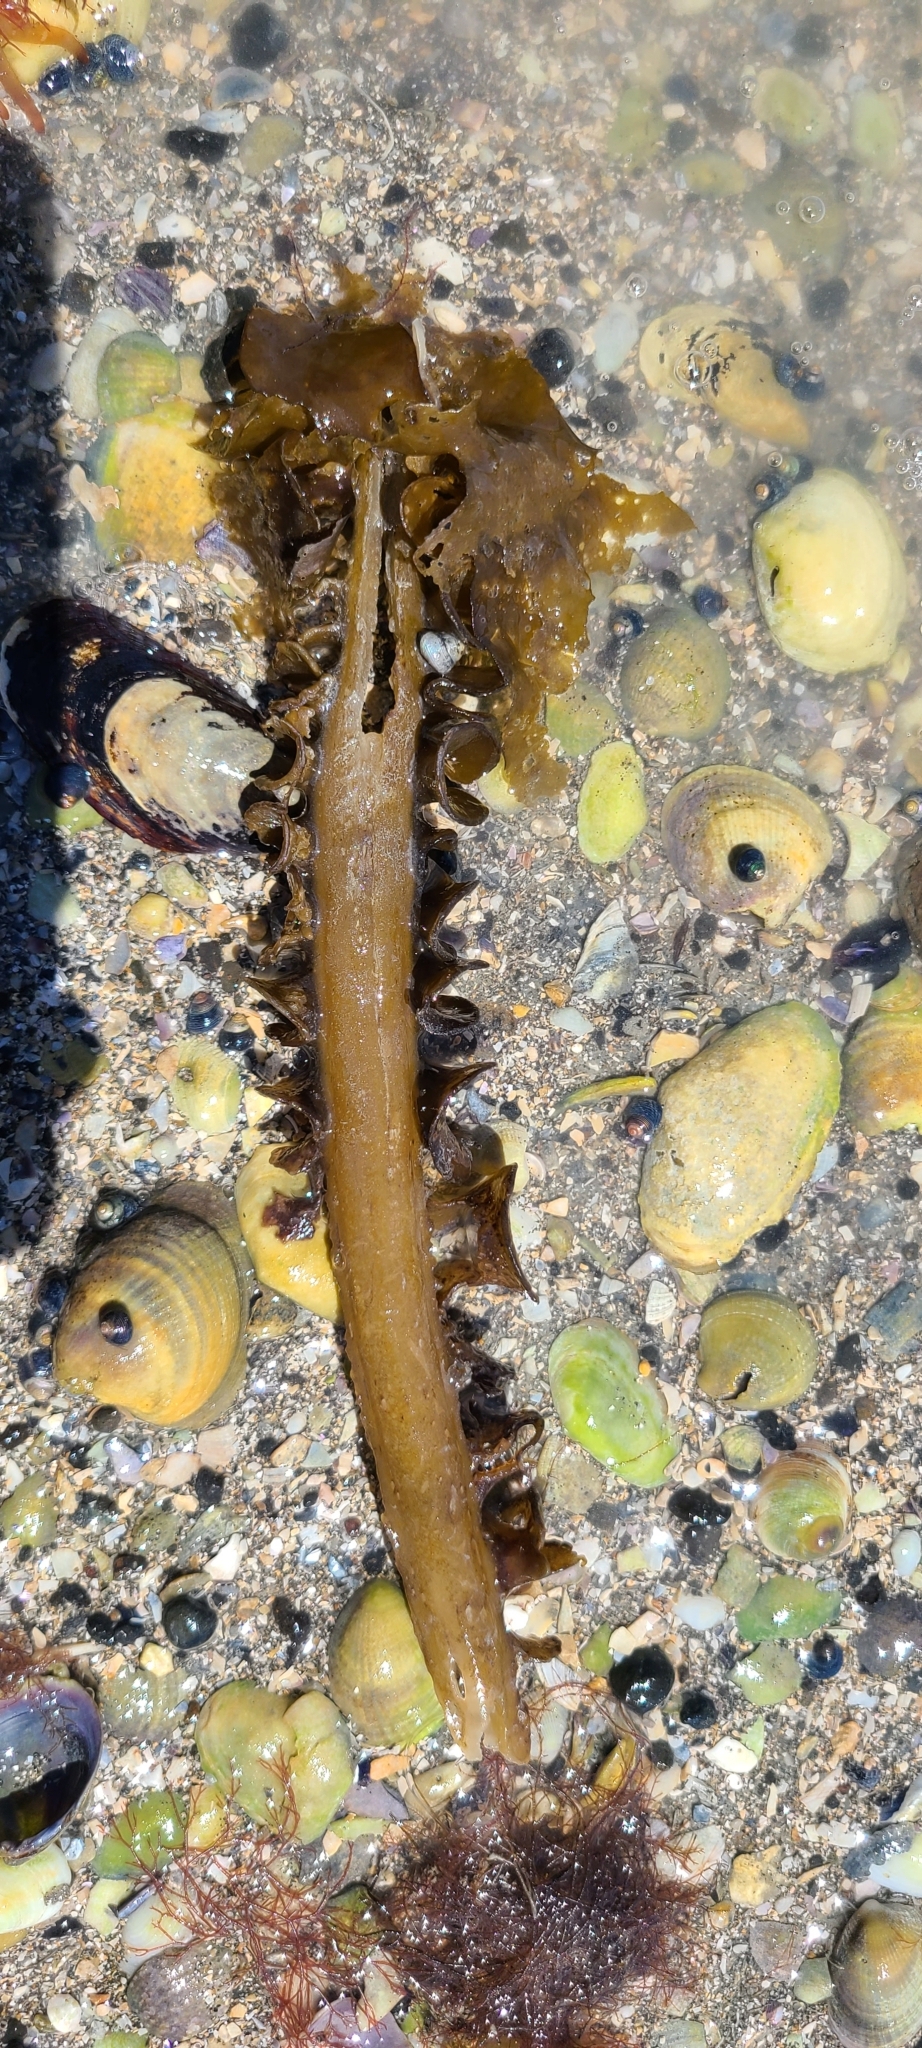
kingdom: Chromista
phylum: Ochrophyta
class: Phaeophyceae
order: Laminariales
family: Alariaceae
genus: Undaria
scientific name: Undaria pinnatifida
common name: Asian kelp
